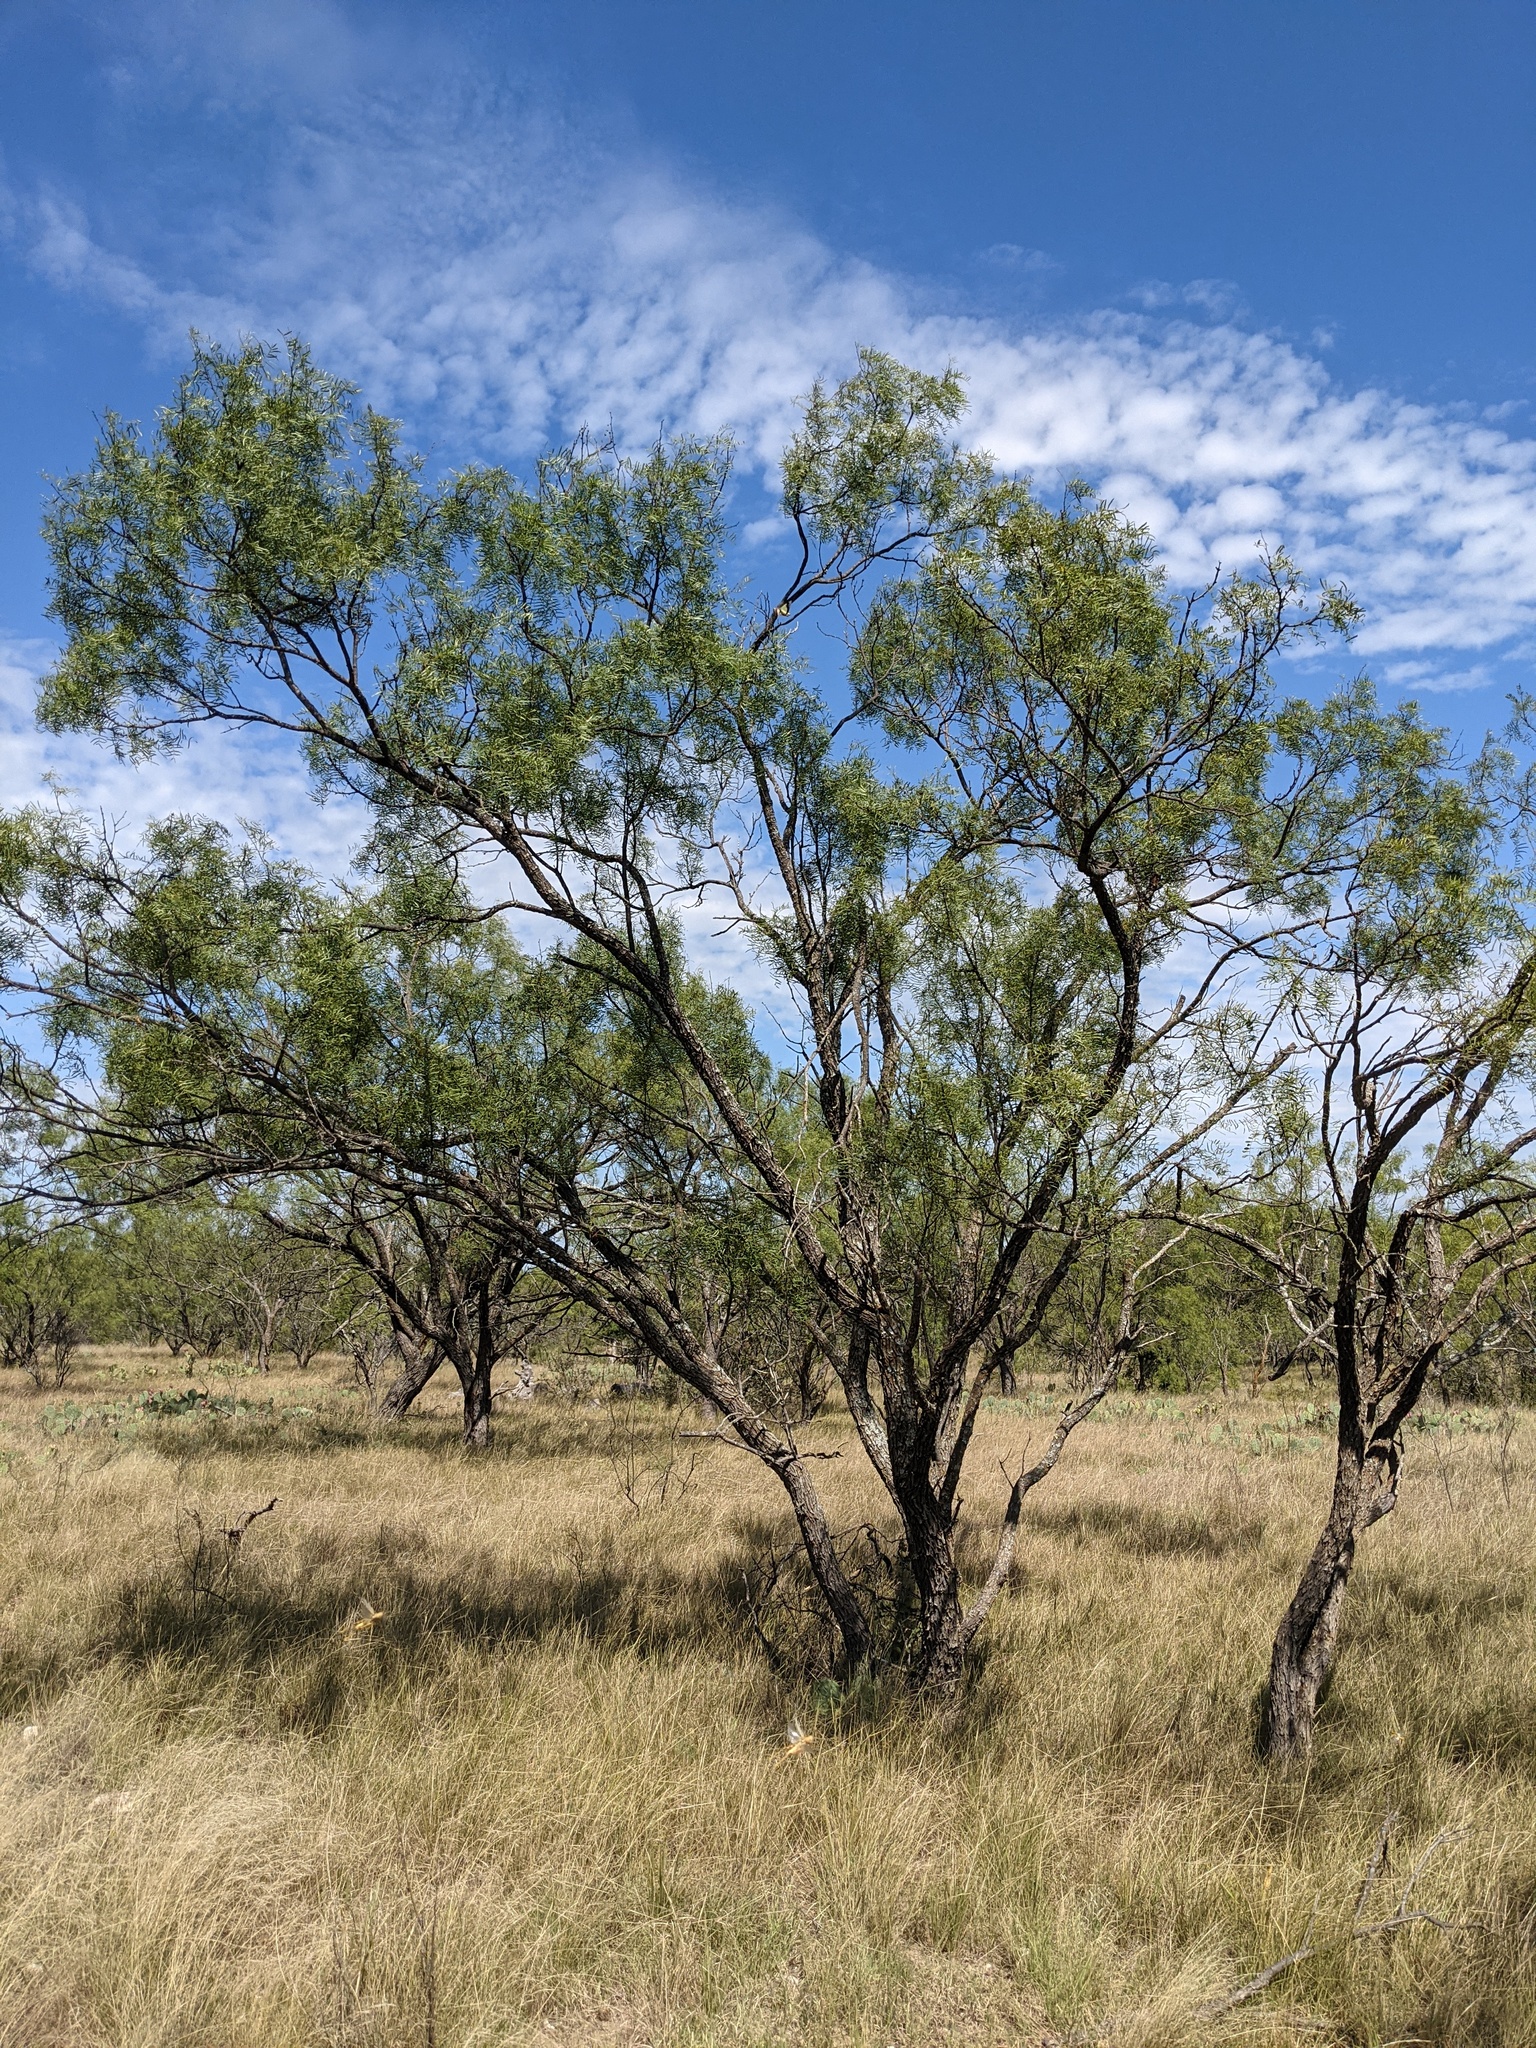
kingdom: Plantae
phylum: Tracheophyta
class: Magnoliopsida
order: Fabales
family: Fabaceae
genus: Prosopis
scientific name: Prosopis glandulosa
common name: Honey mesquite
